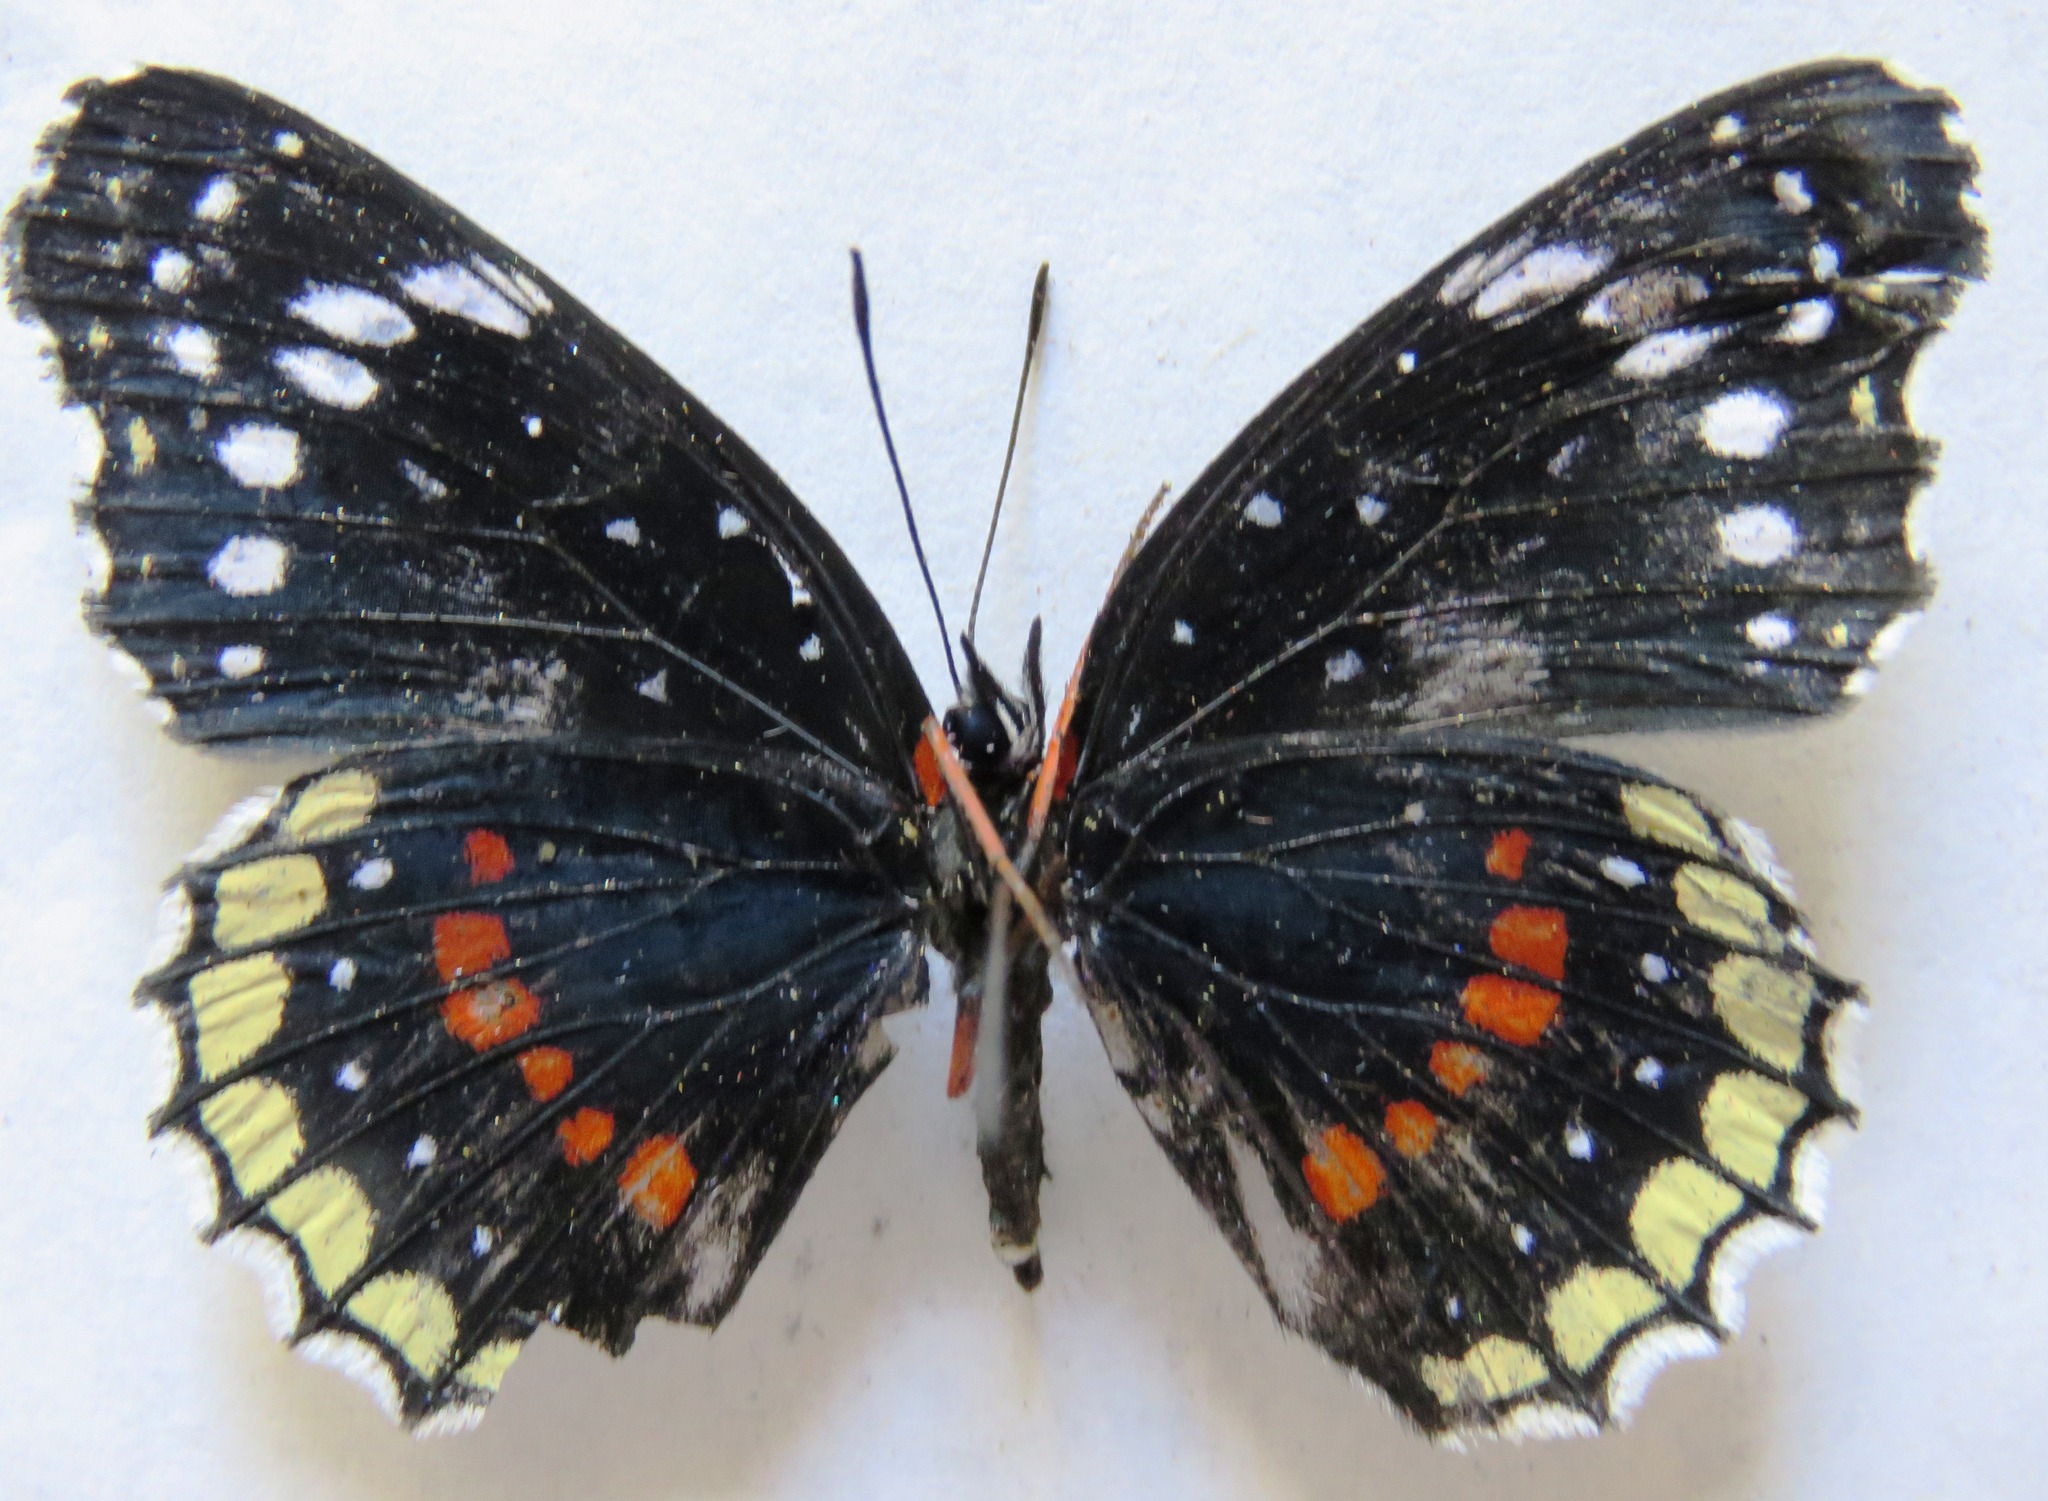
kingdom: Animalia
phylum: Arthropoda
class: Insecta
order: Lepidoptera
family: Nymphalidae
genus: Chlosyne
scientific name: Chlosyne hippodrome
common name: Simple patch
